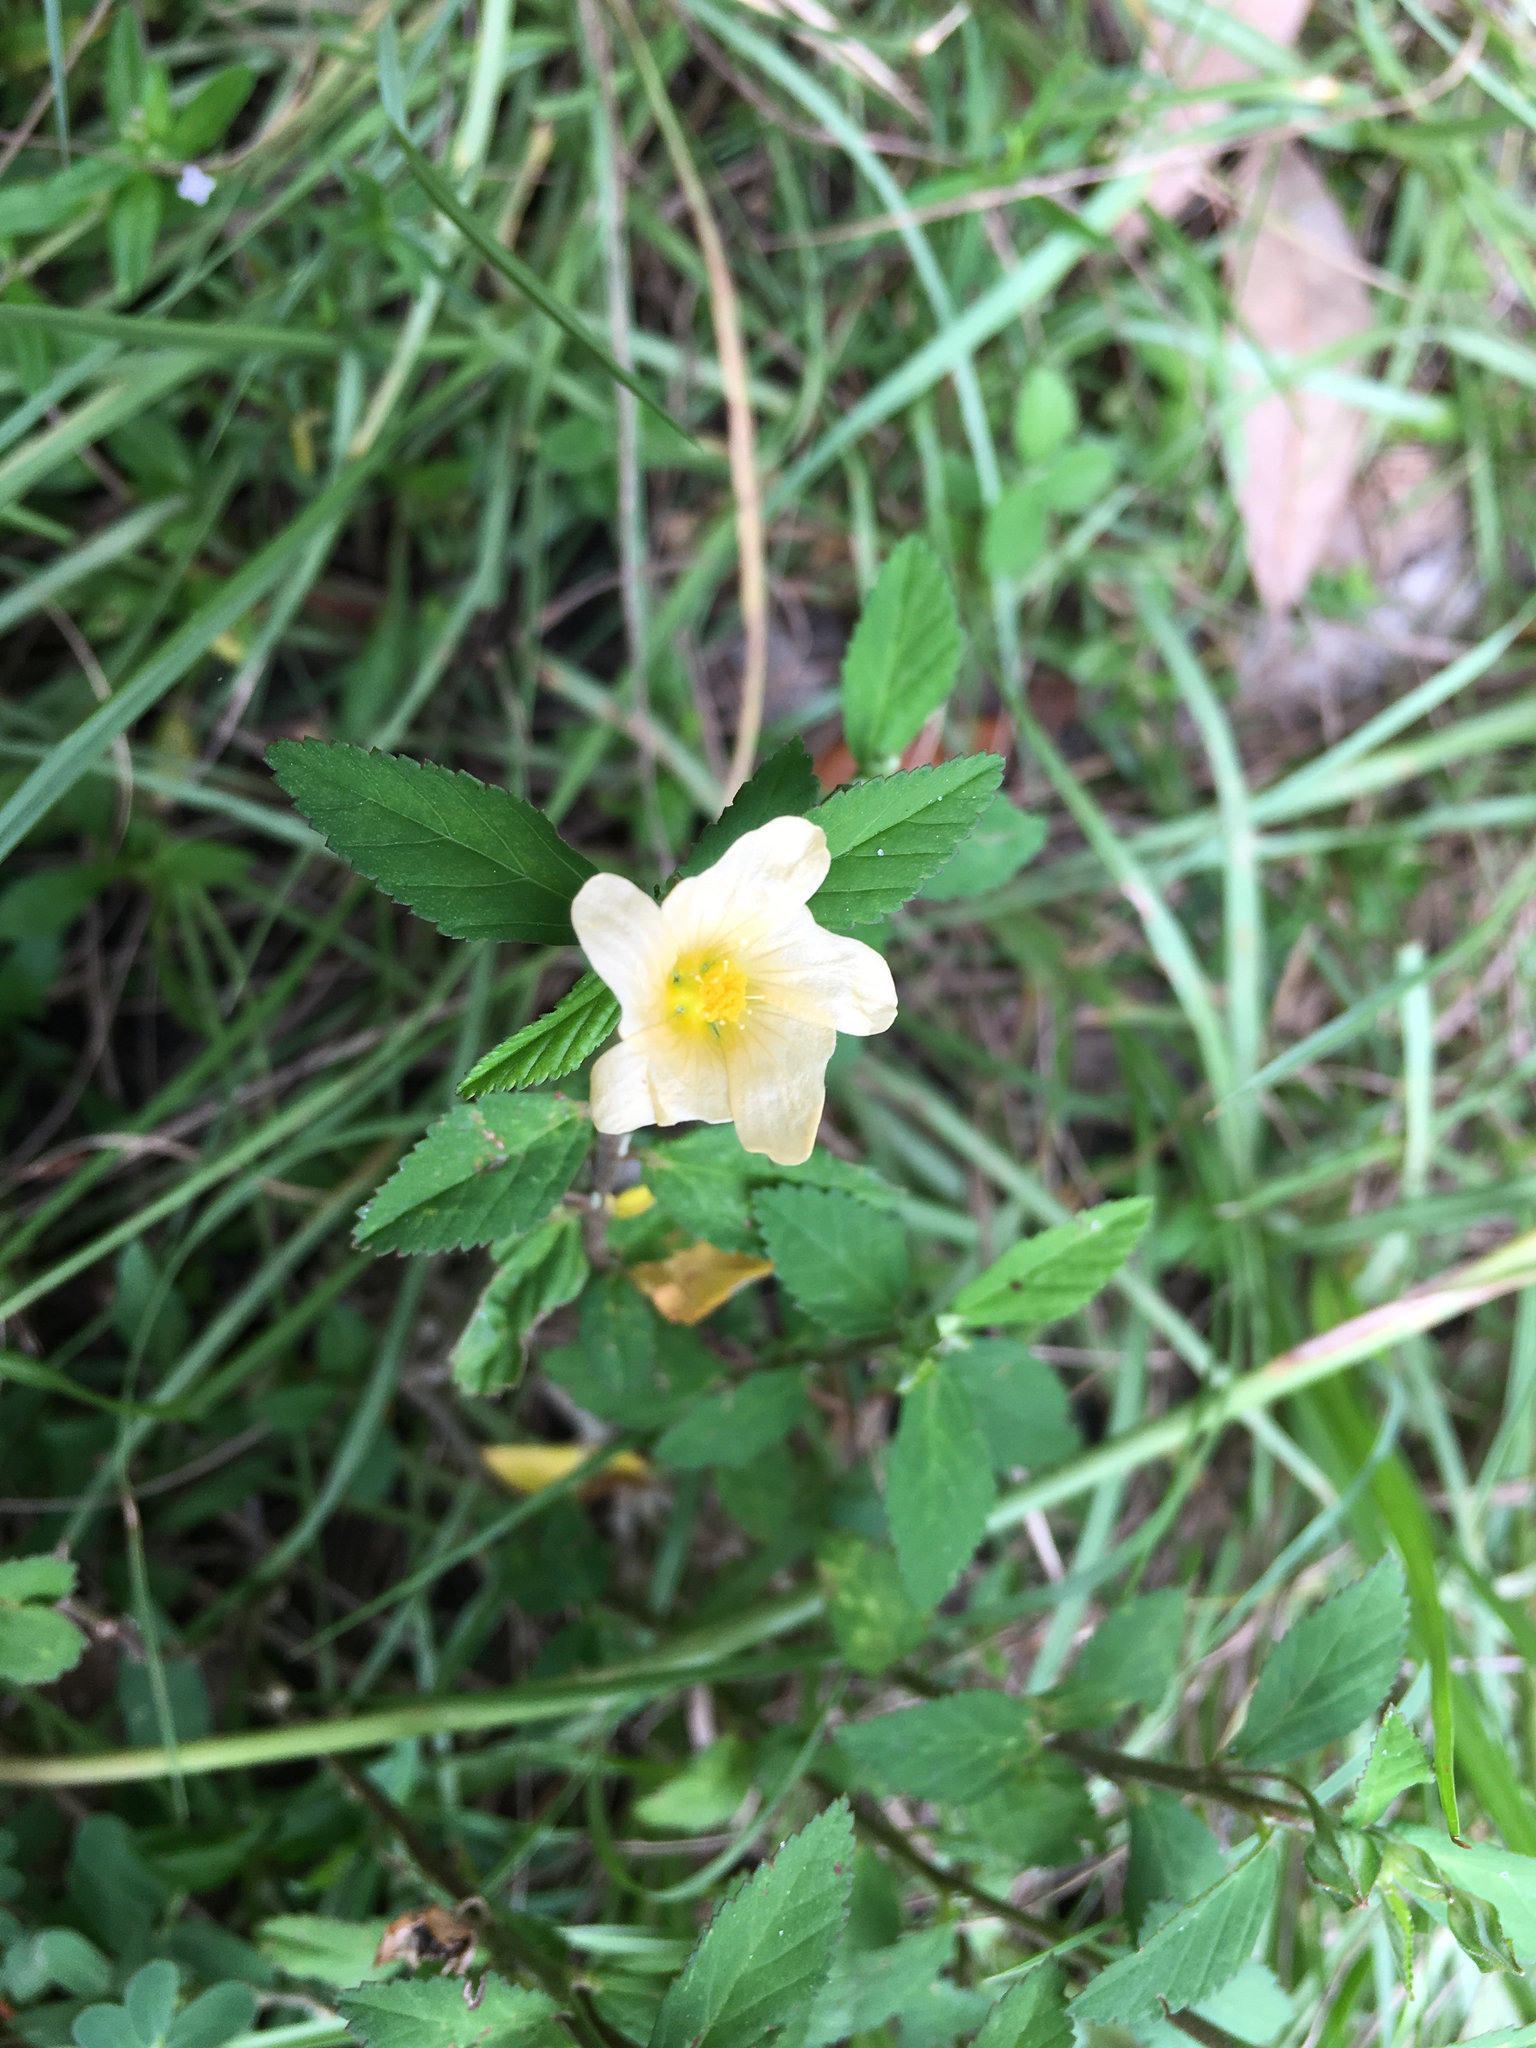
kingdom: Plantae
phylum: Tracheophyta
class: Magnoliopsida
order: Malvales
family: Malvaceae
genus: Sida
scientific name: Sida rhombifolia
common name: Queensland-hemp
